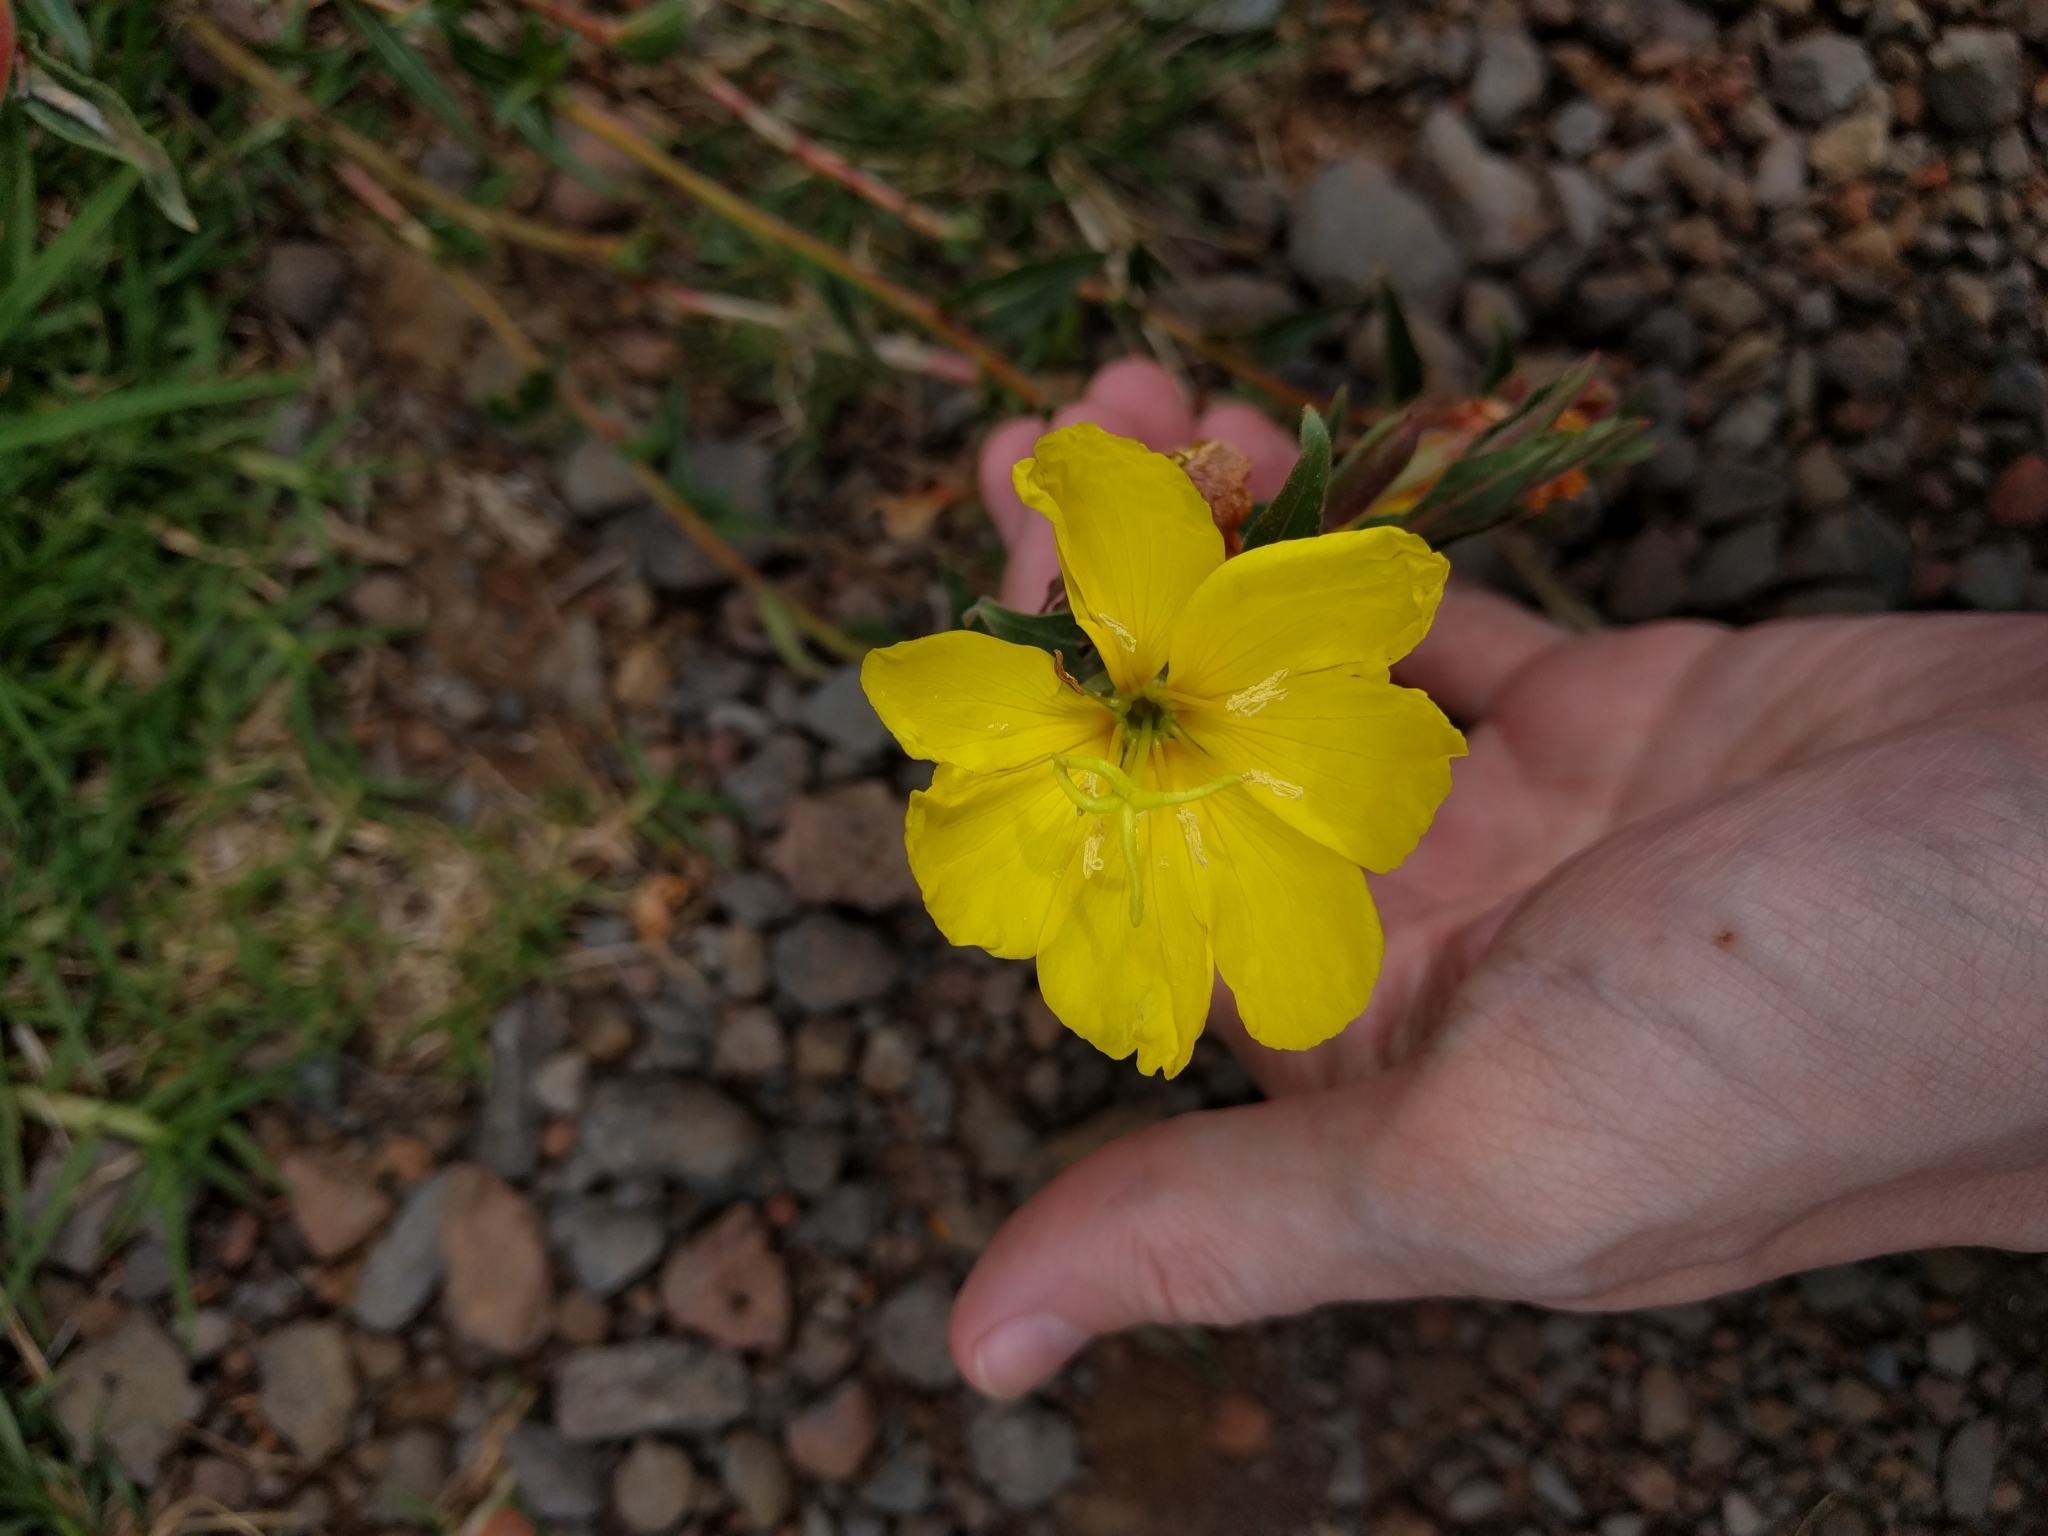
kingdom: Plantae
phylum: Tracheophyta
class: Magnoliopsida
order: Myrtales
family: Onagraceae
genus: Oenothera
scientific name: Oenothera stricta
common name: Fragrant evening-primrose
